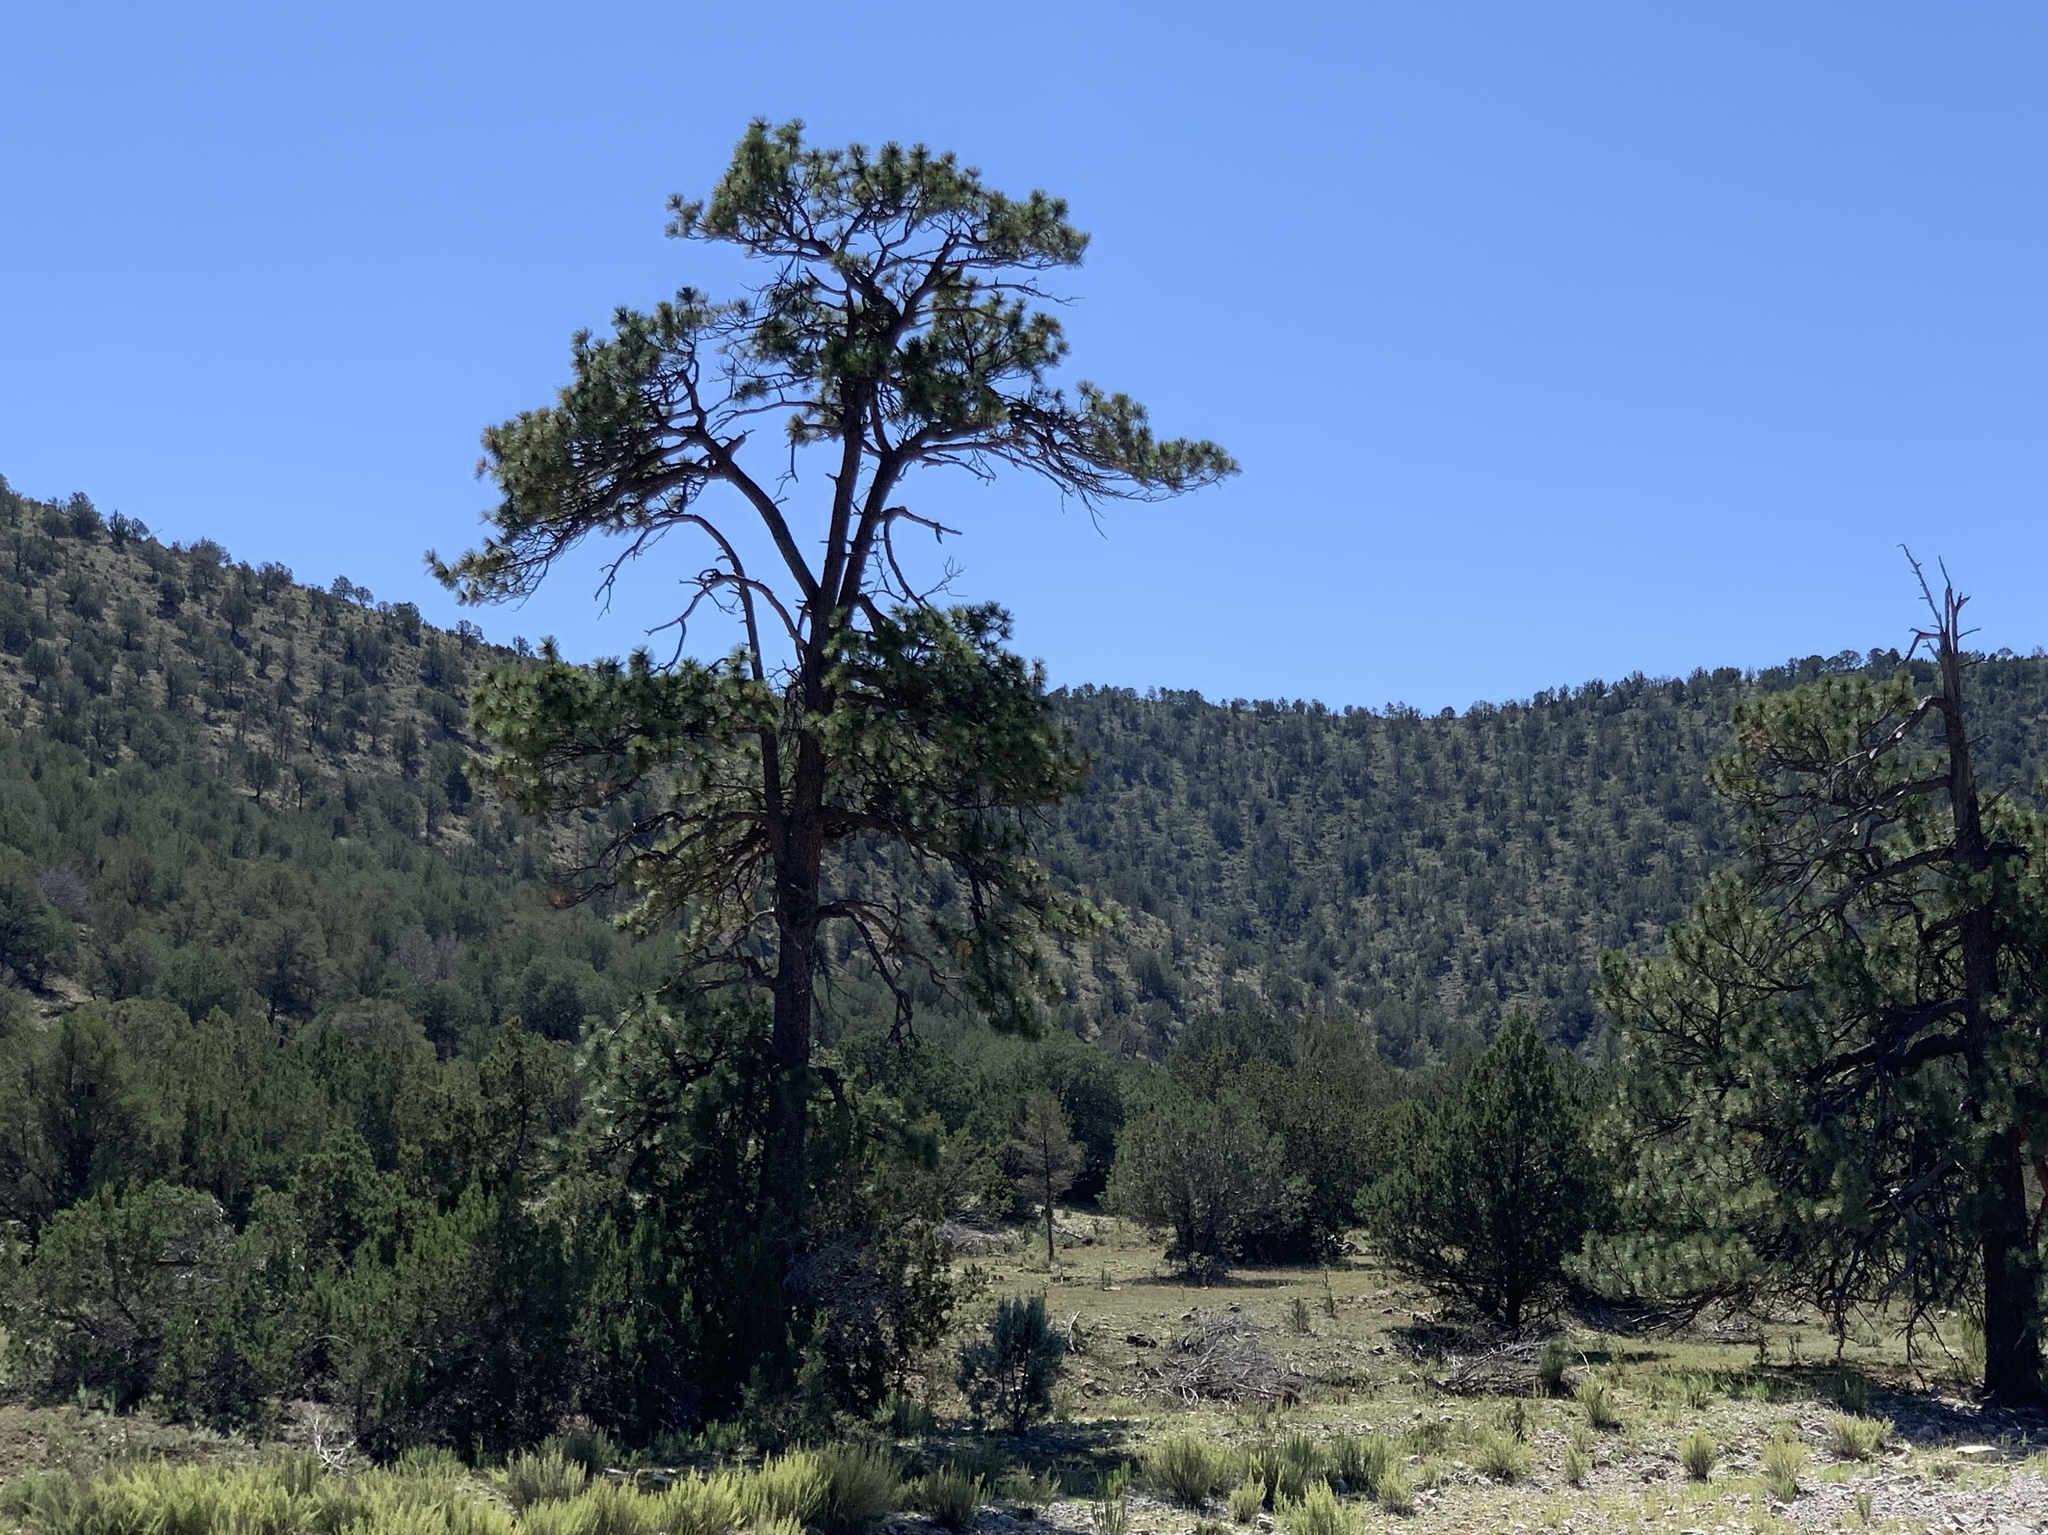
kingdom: Plantae
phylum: Tracheophyta
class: Pinopsida
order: Pinales
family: Pinaceae
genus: Pinus
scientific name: Pinus ponderosa
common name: Western yellow-pine
